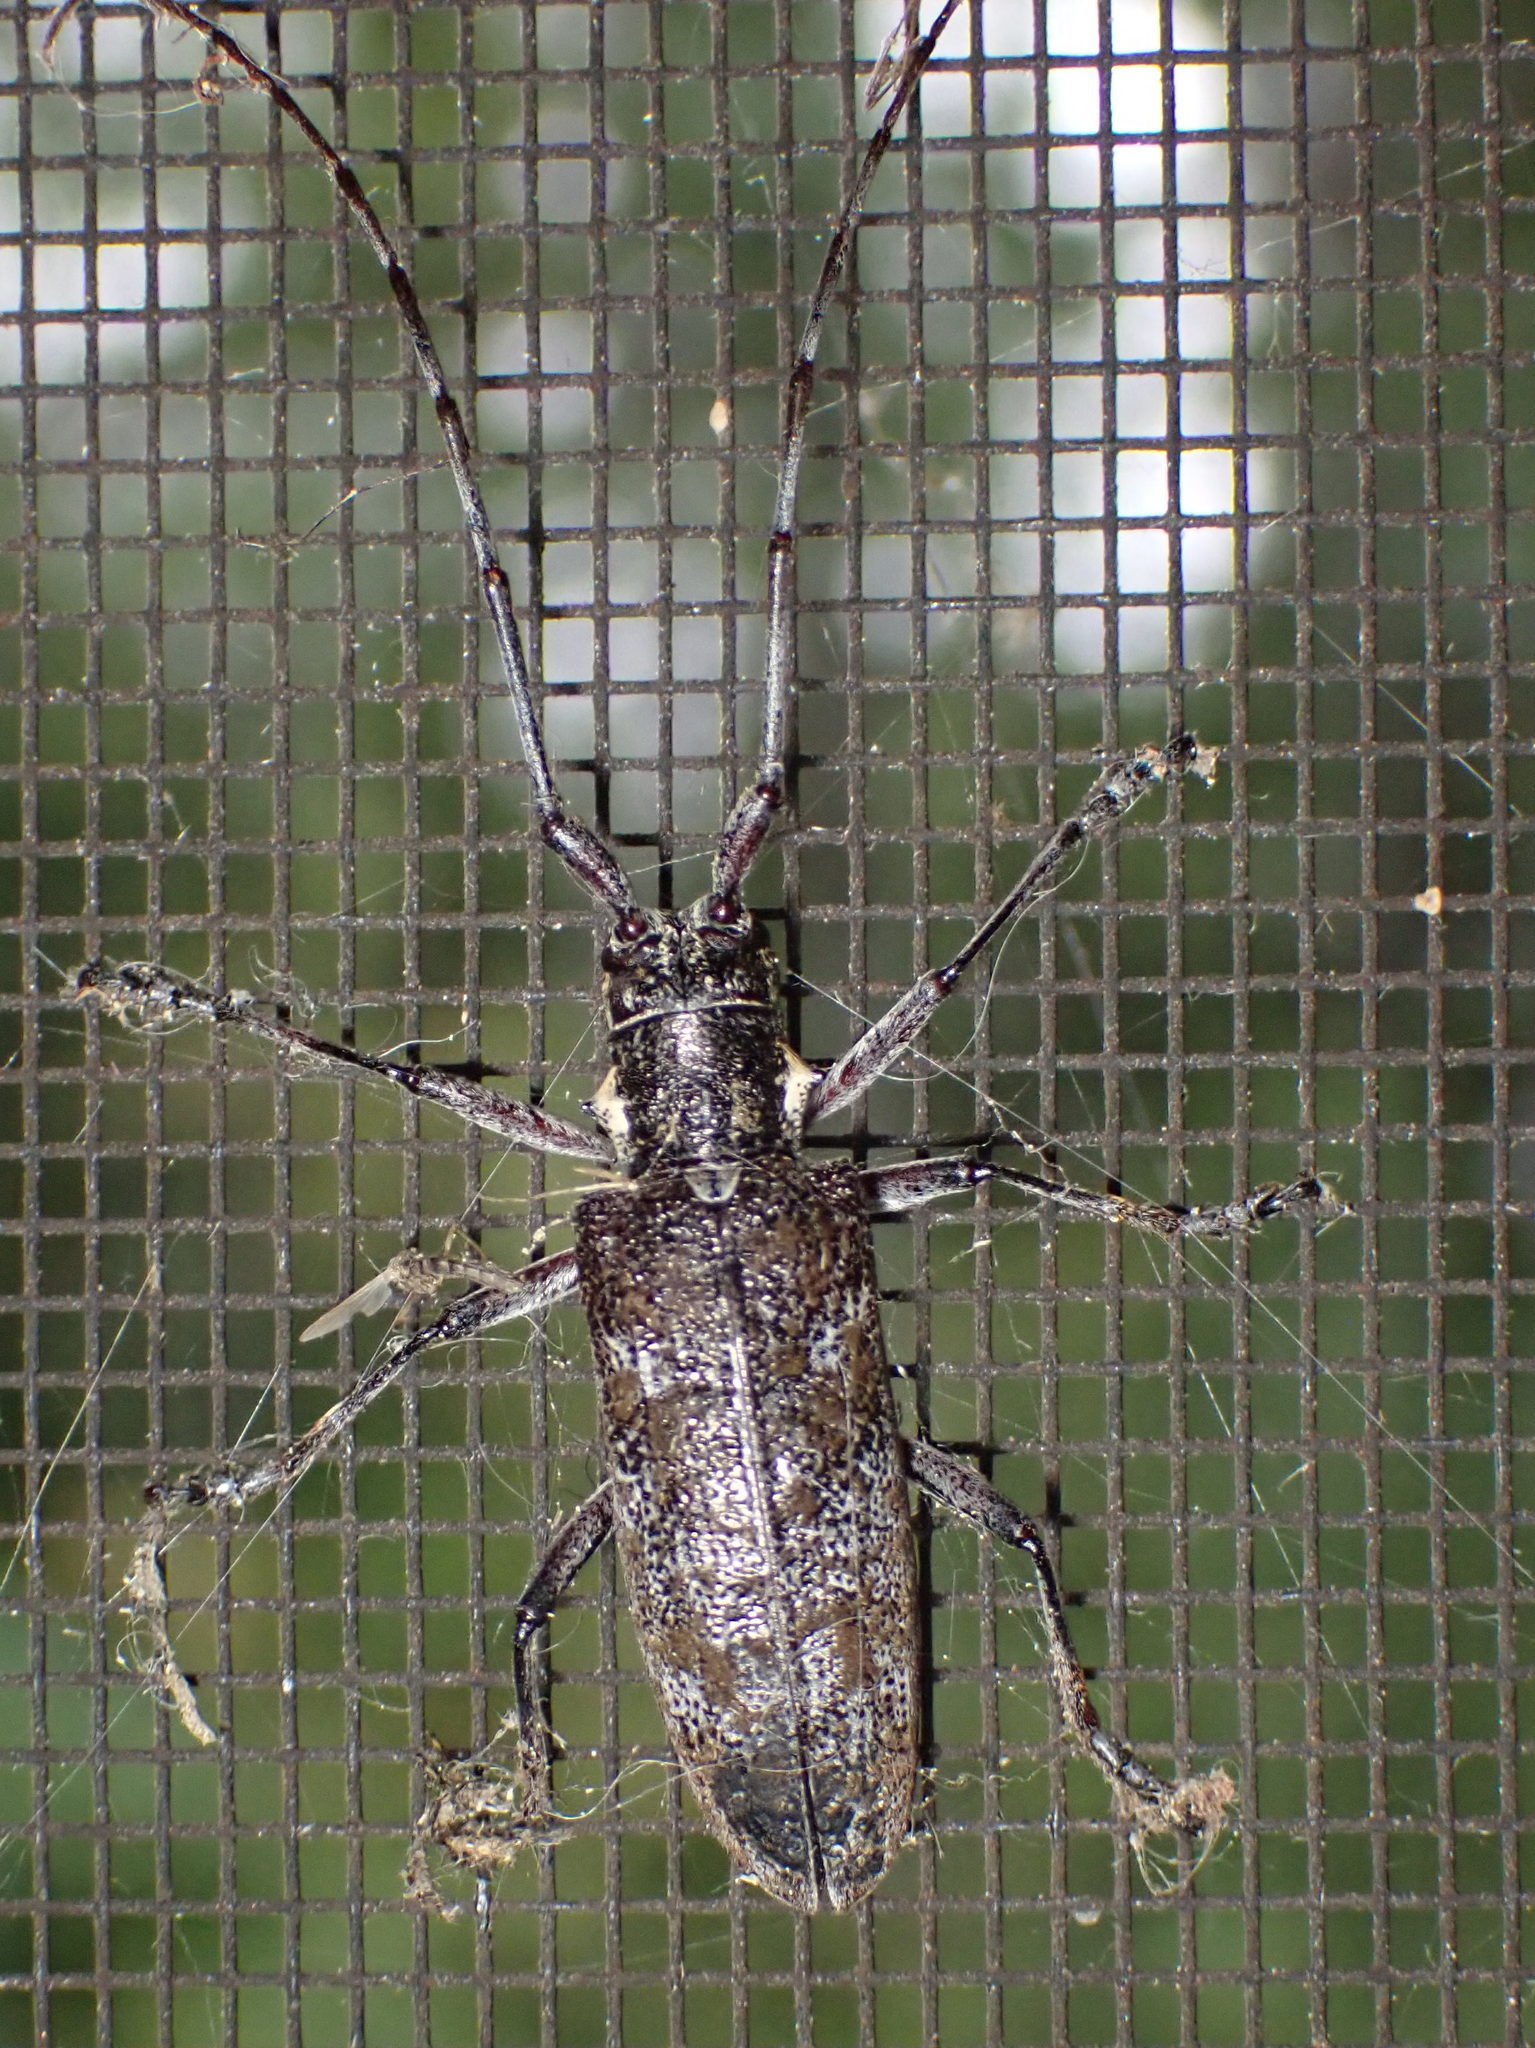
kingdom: Animalia
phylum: Arthropoda
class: Insecta
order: Coleoptera
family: Cerambycidae
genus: Monochamus
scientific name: Monochamus
